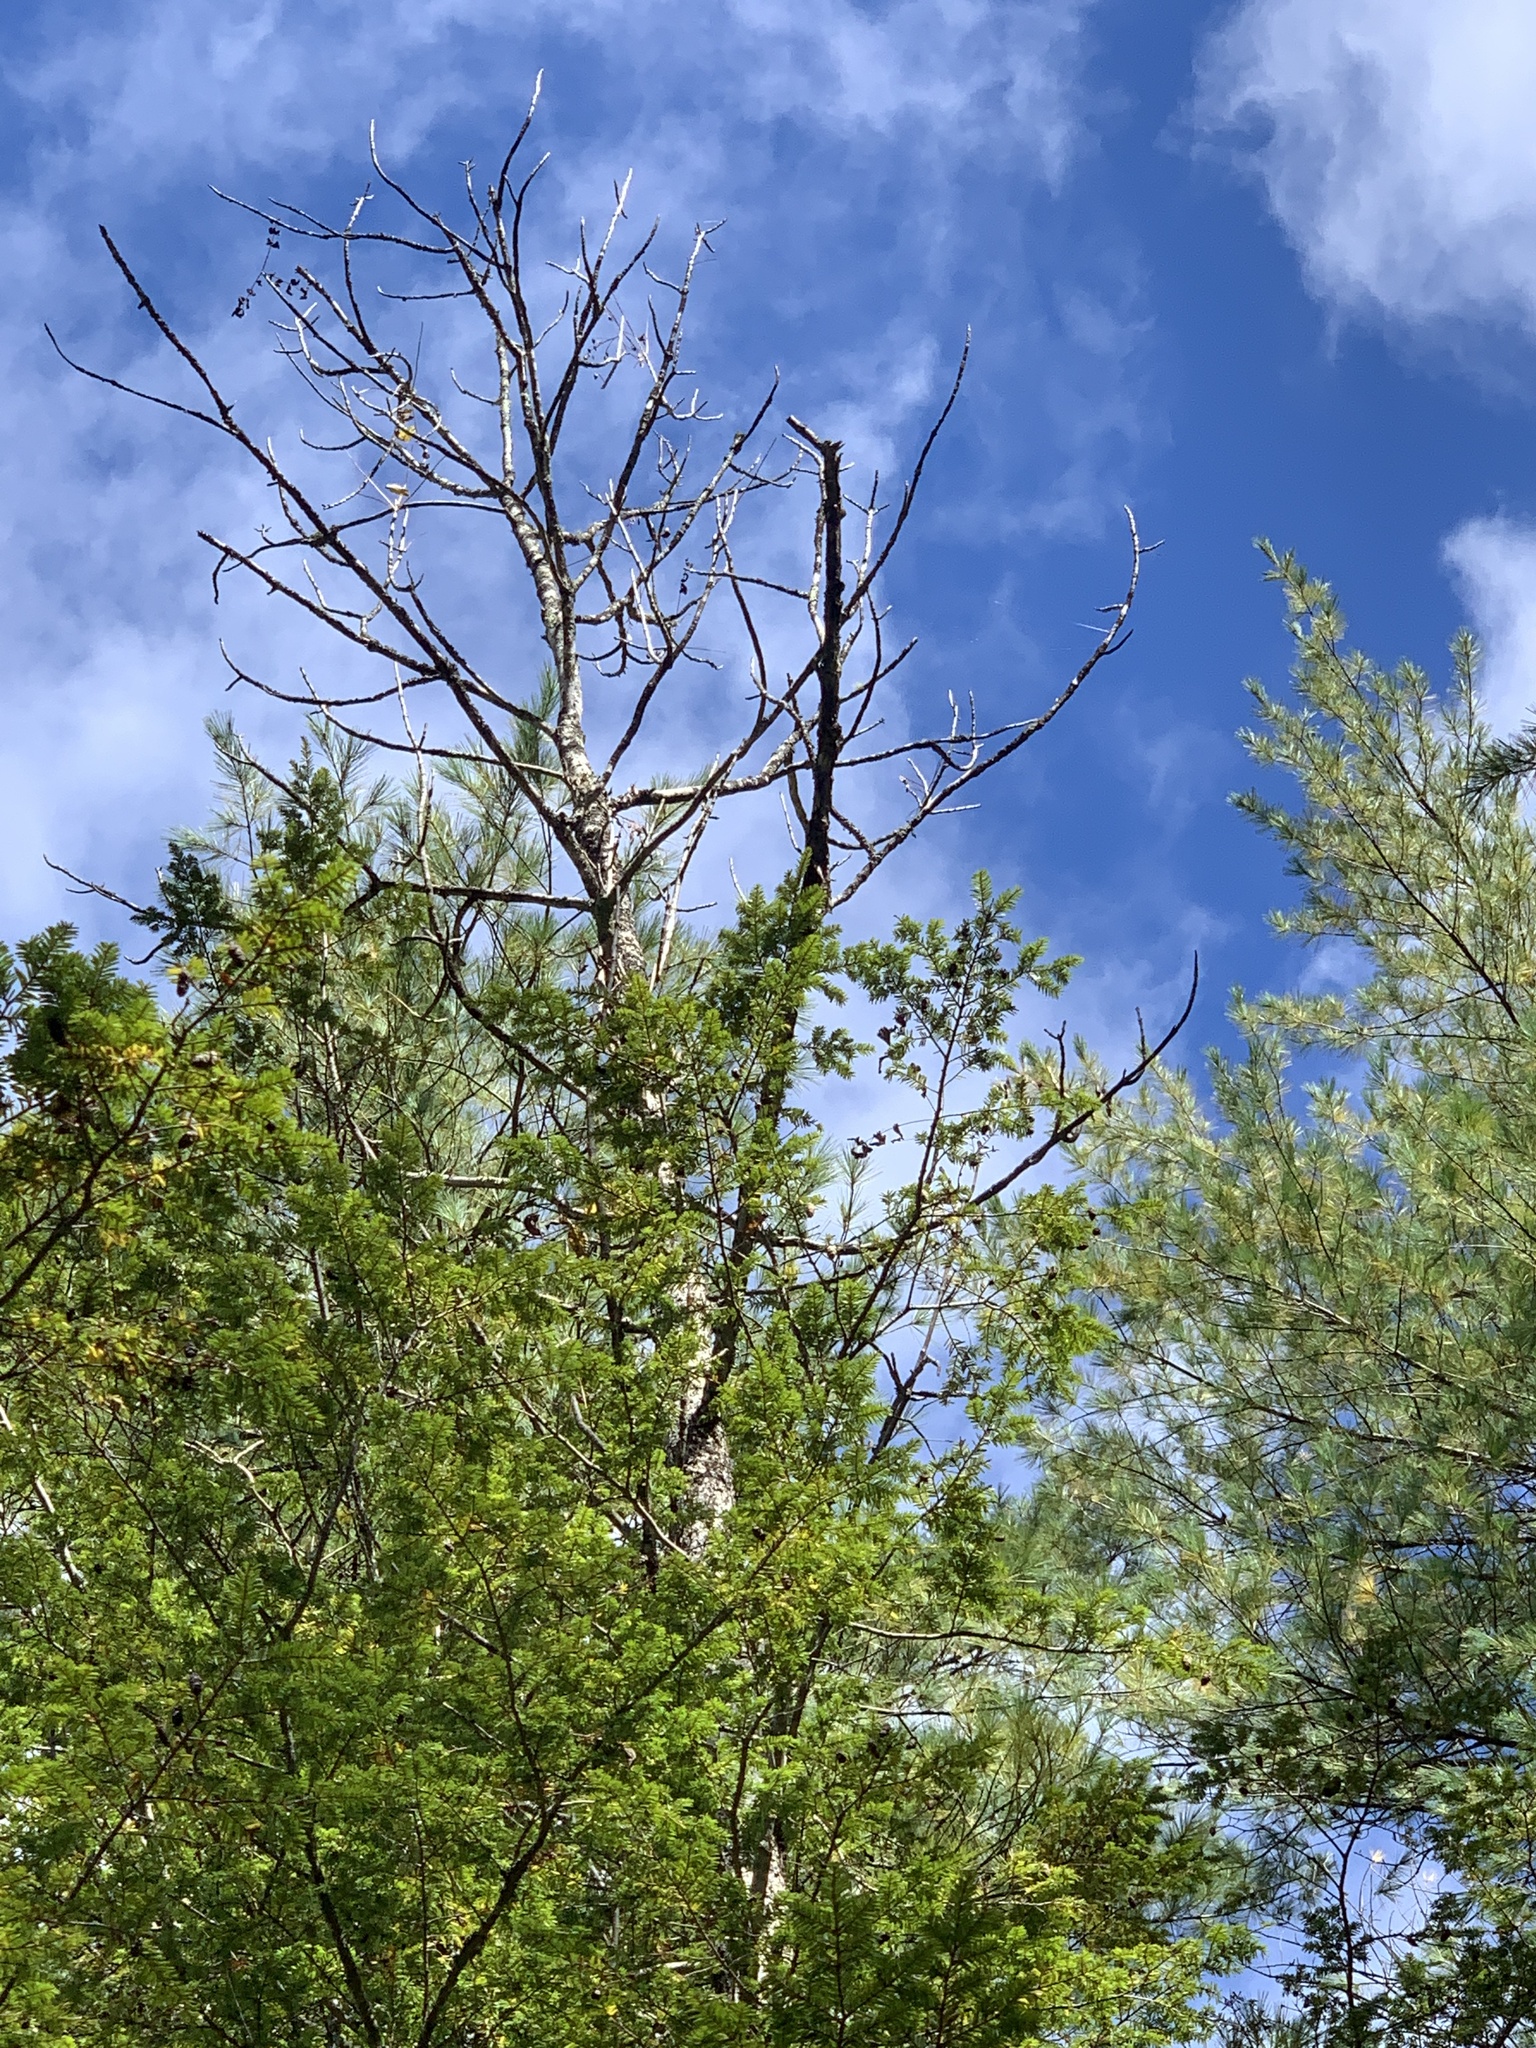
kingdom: Plantae
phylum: Tracheophyta
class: Magnoliopsida
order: Lamiales
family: Oleaceae
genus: Fraxinus
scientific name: Fraxinus nigra
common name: Black ash
